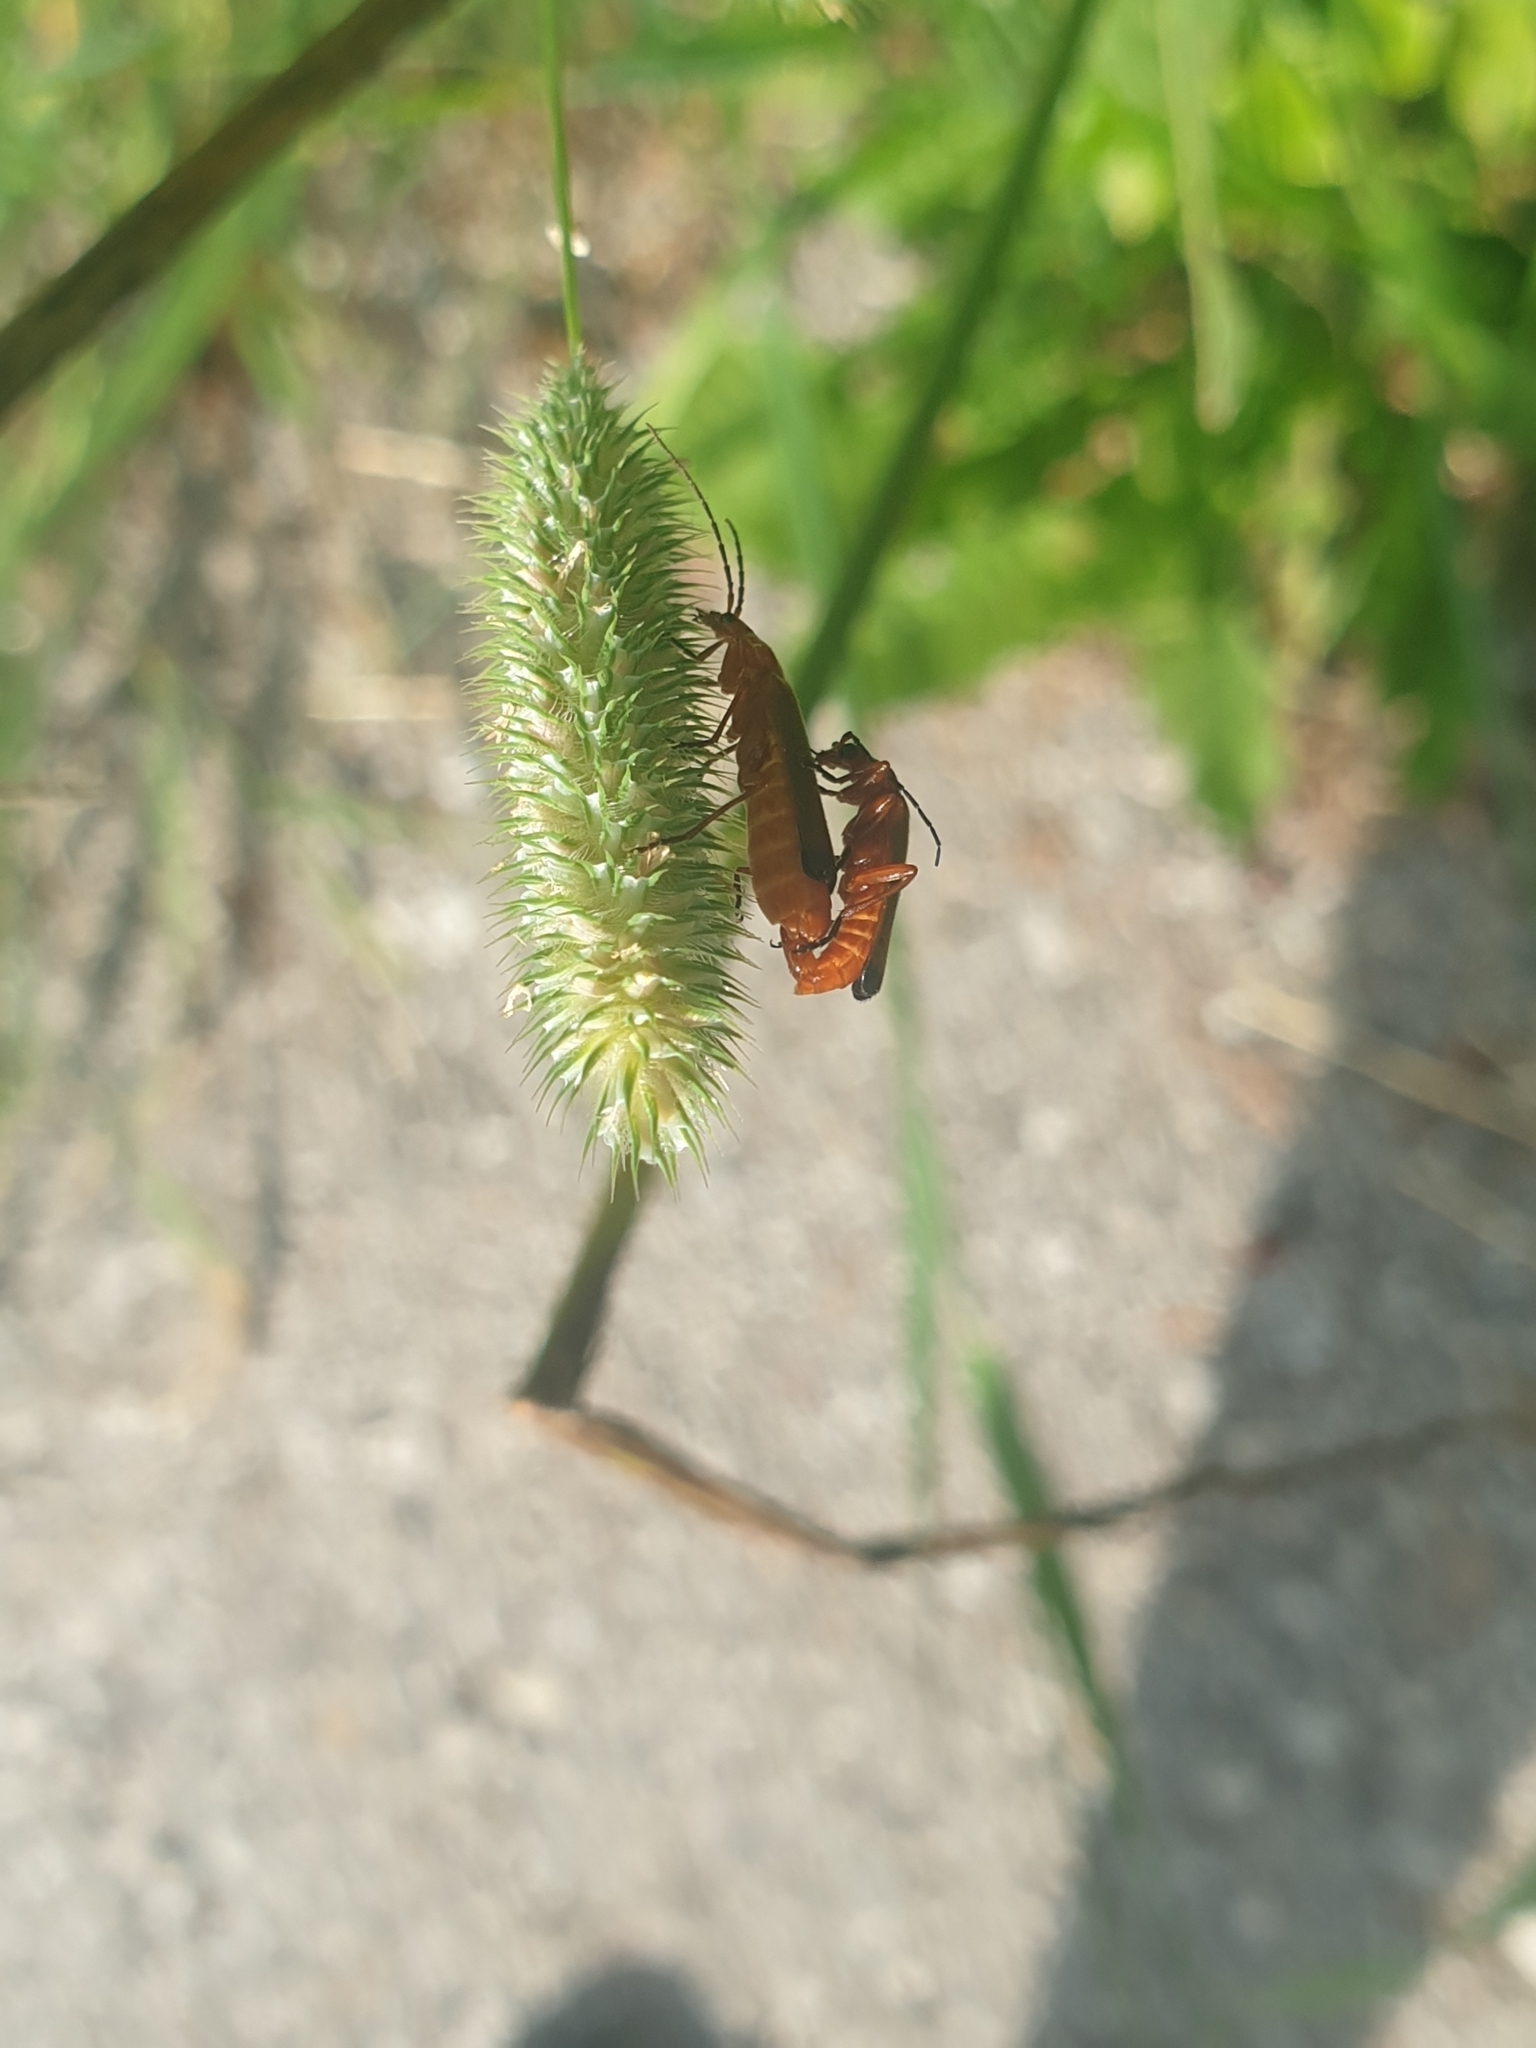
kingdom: Animalia
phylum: Arthropoda
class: Insecta
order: Coleoptera
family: Cantharidae
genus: Rhagonycha
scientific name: Rhagonycha fulva
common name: Common red soldier beetle
